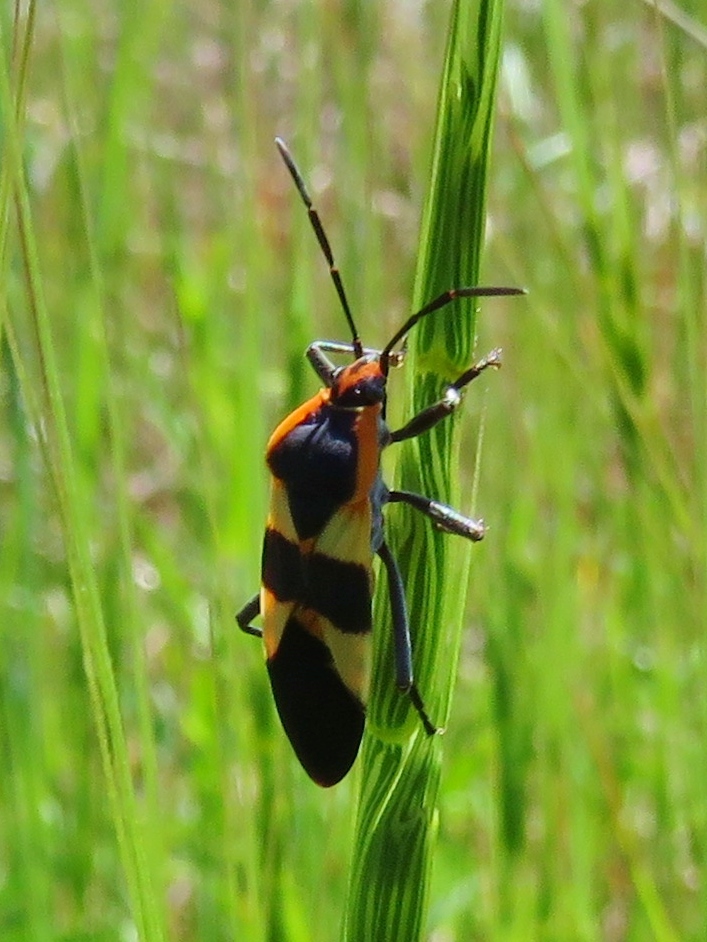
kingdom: Animalia
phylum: Arthropoda
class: Insecta
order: Hemiptera
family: Lygaeidae
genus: Oncopeltus
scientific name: Oncopeltus fasciatus
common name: Large milkweed bug
